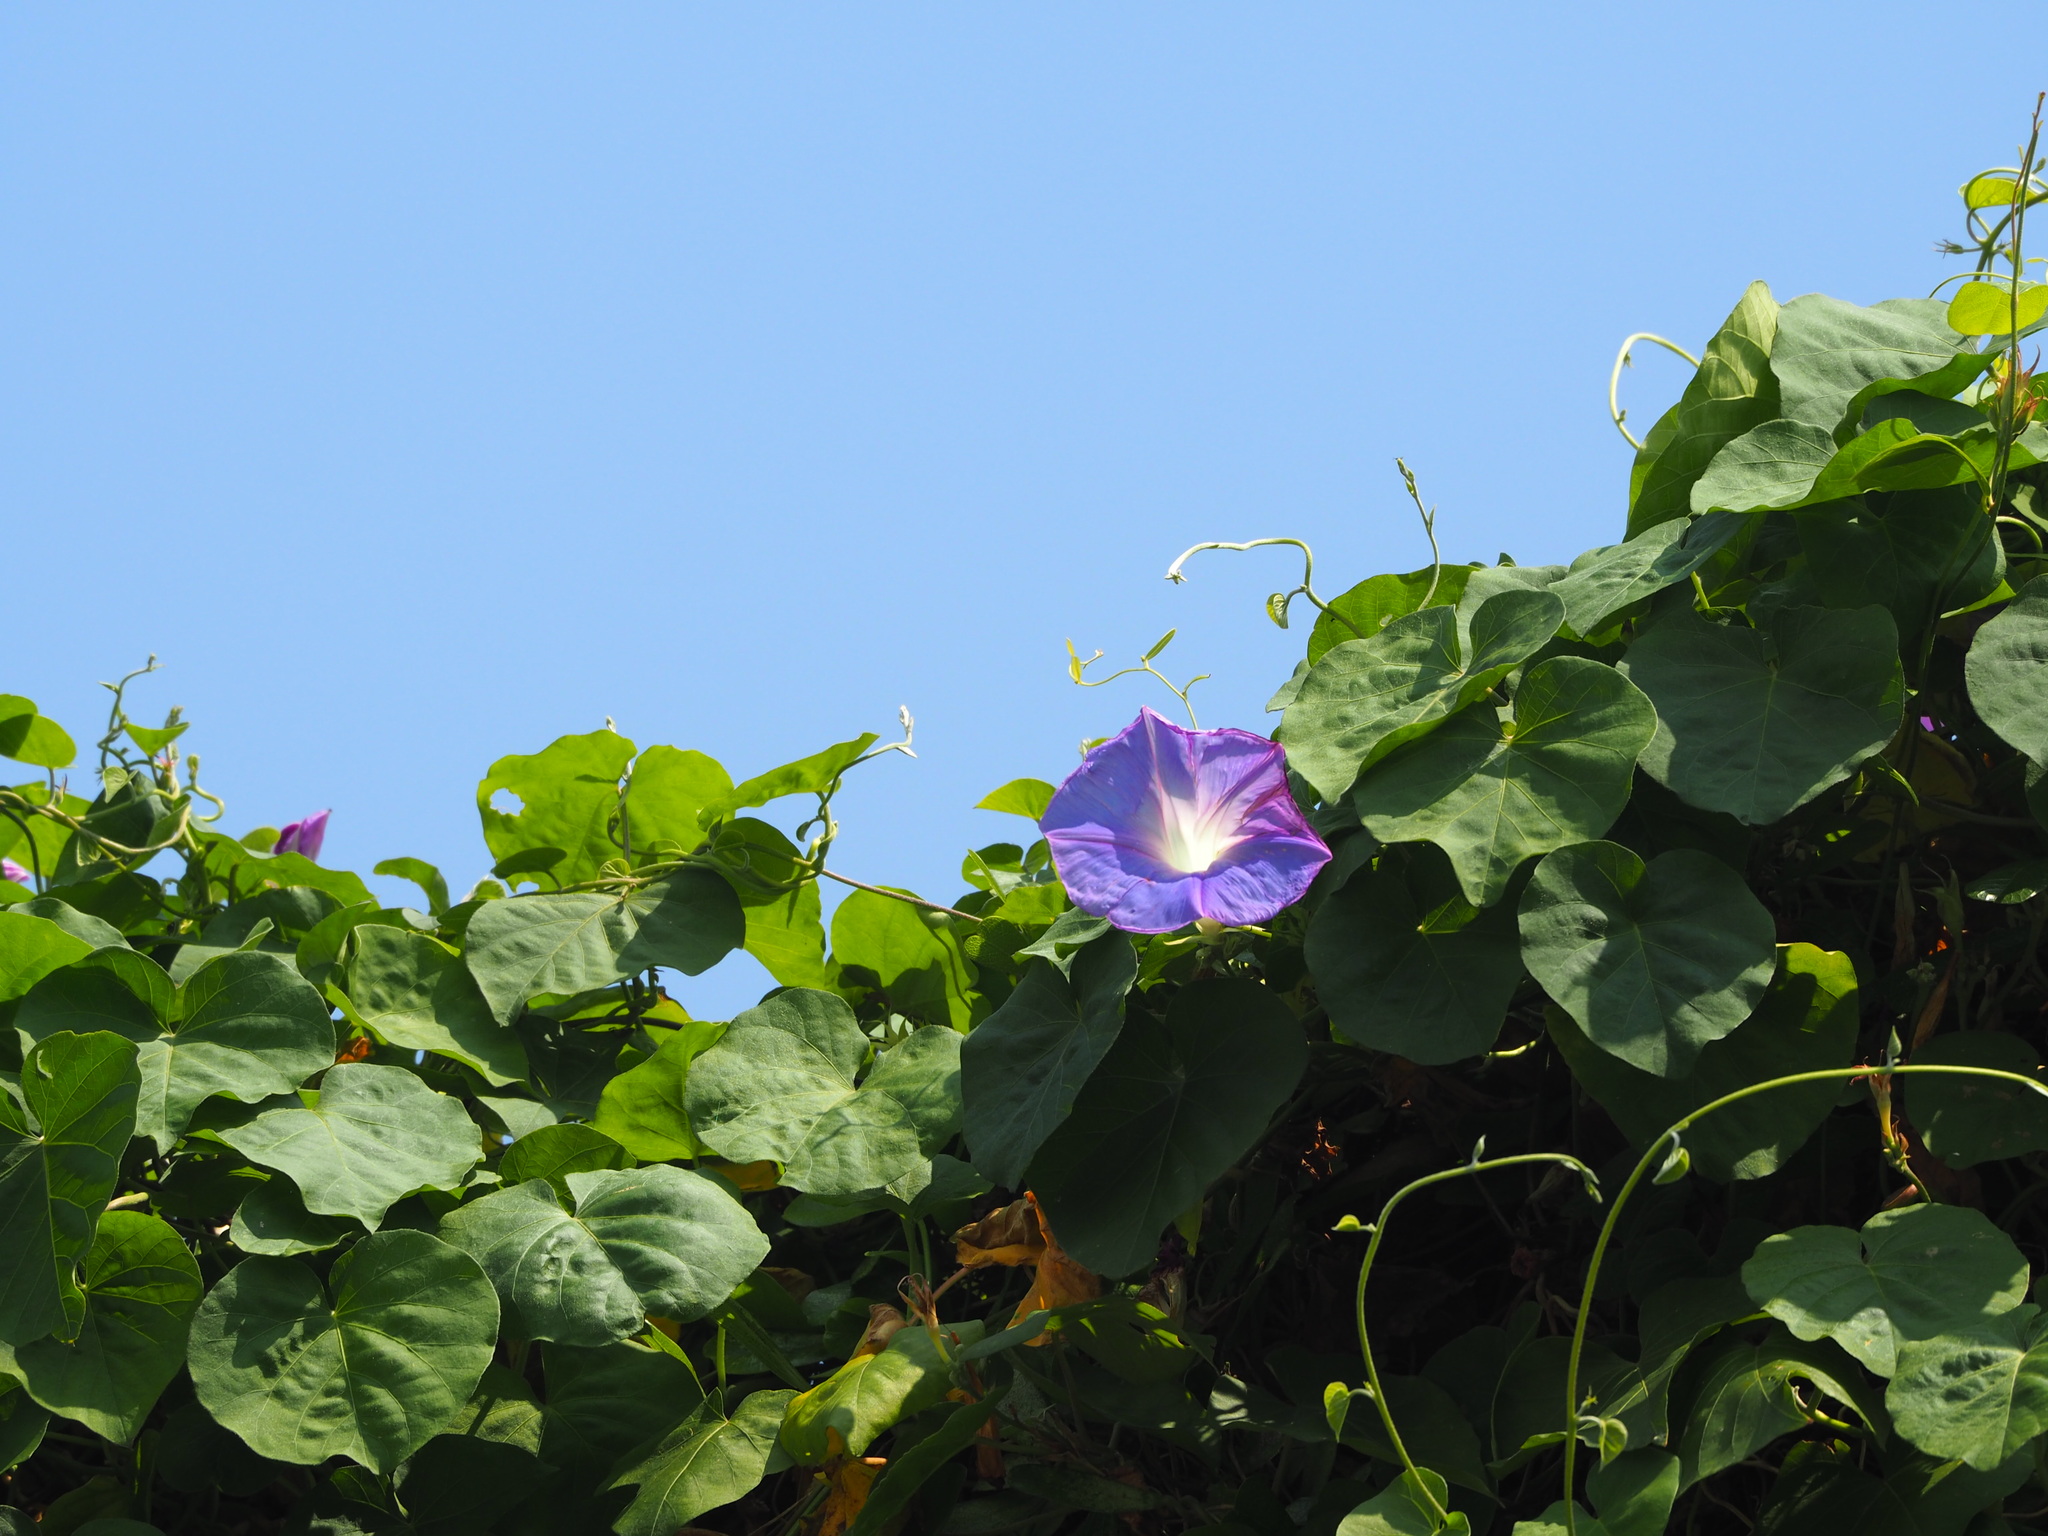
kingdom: Plantae
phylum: Tracheophyta
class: Magnoliopsida
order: Solanales
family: Convolvulaceae
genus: Ipomoea
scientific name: Ipomoea indica
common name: Blue dawnflower
